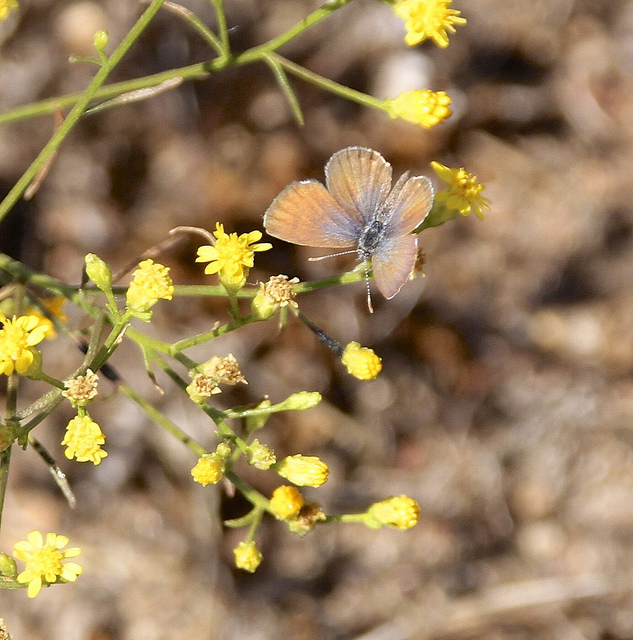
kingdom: Animalia
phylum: Arthropoda
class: Insecta
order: Lepidoptera
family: Lycaenidae
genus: Brephidium
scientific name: Brephidium exilis
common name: Pygmy blue
